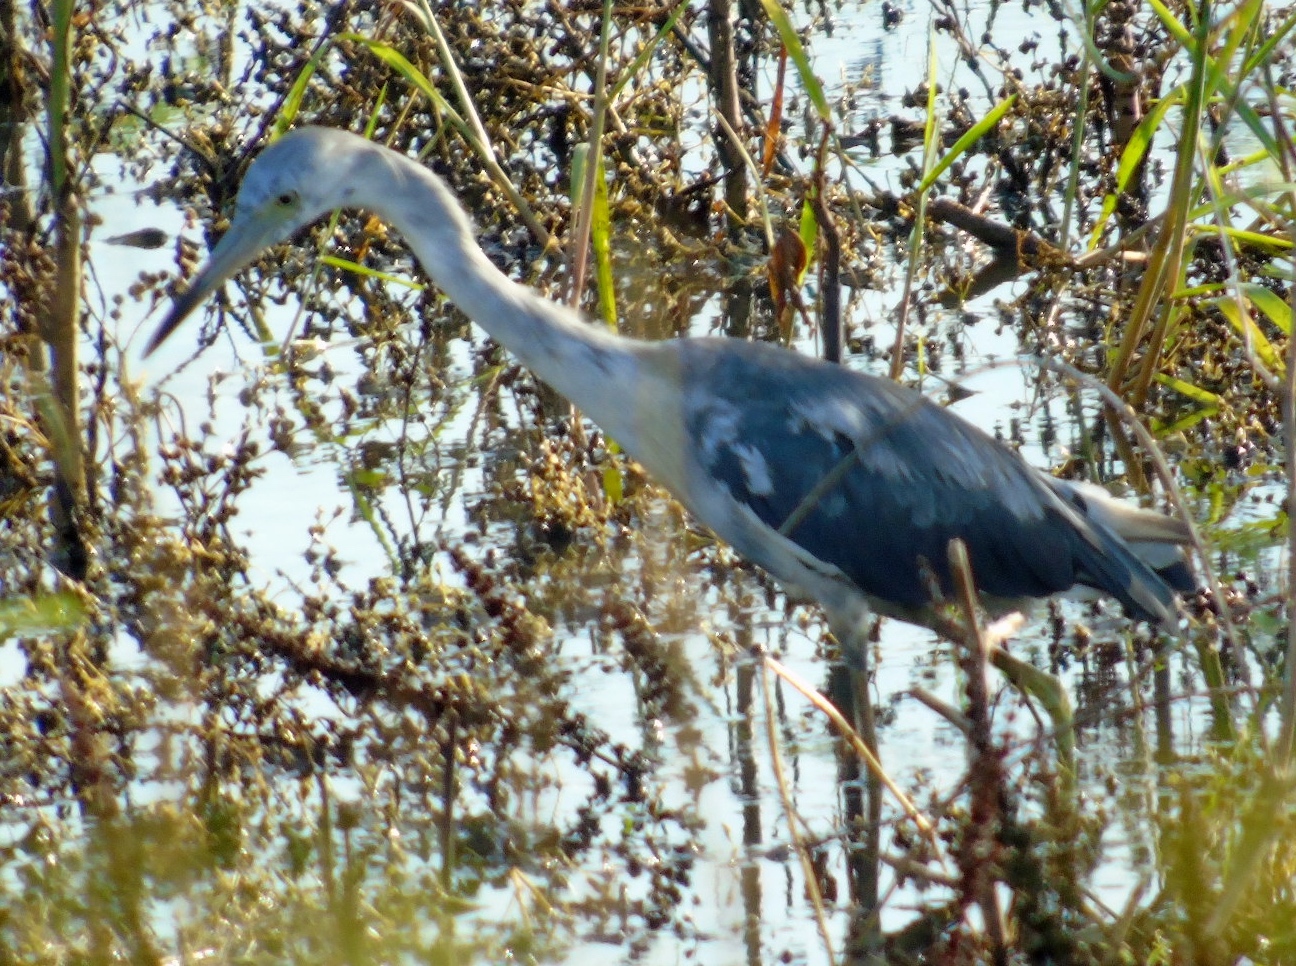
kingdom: Animalia
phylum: Chordata
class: Aves
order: Pelecaniformes
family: Ardeidae
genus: Egretta
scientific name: Egretta caerulea
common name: Little blue heron
